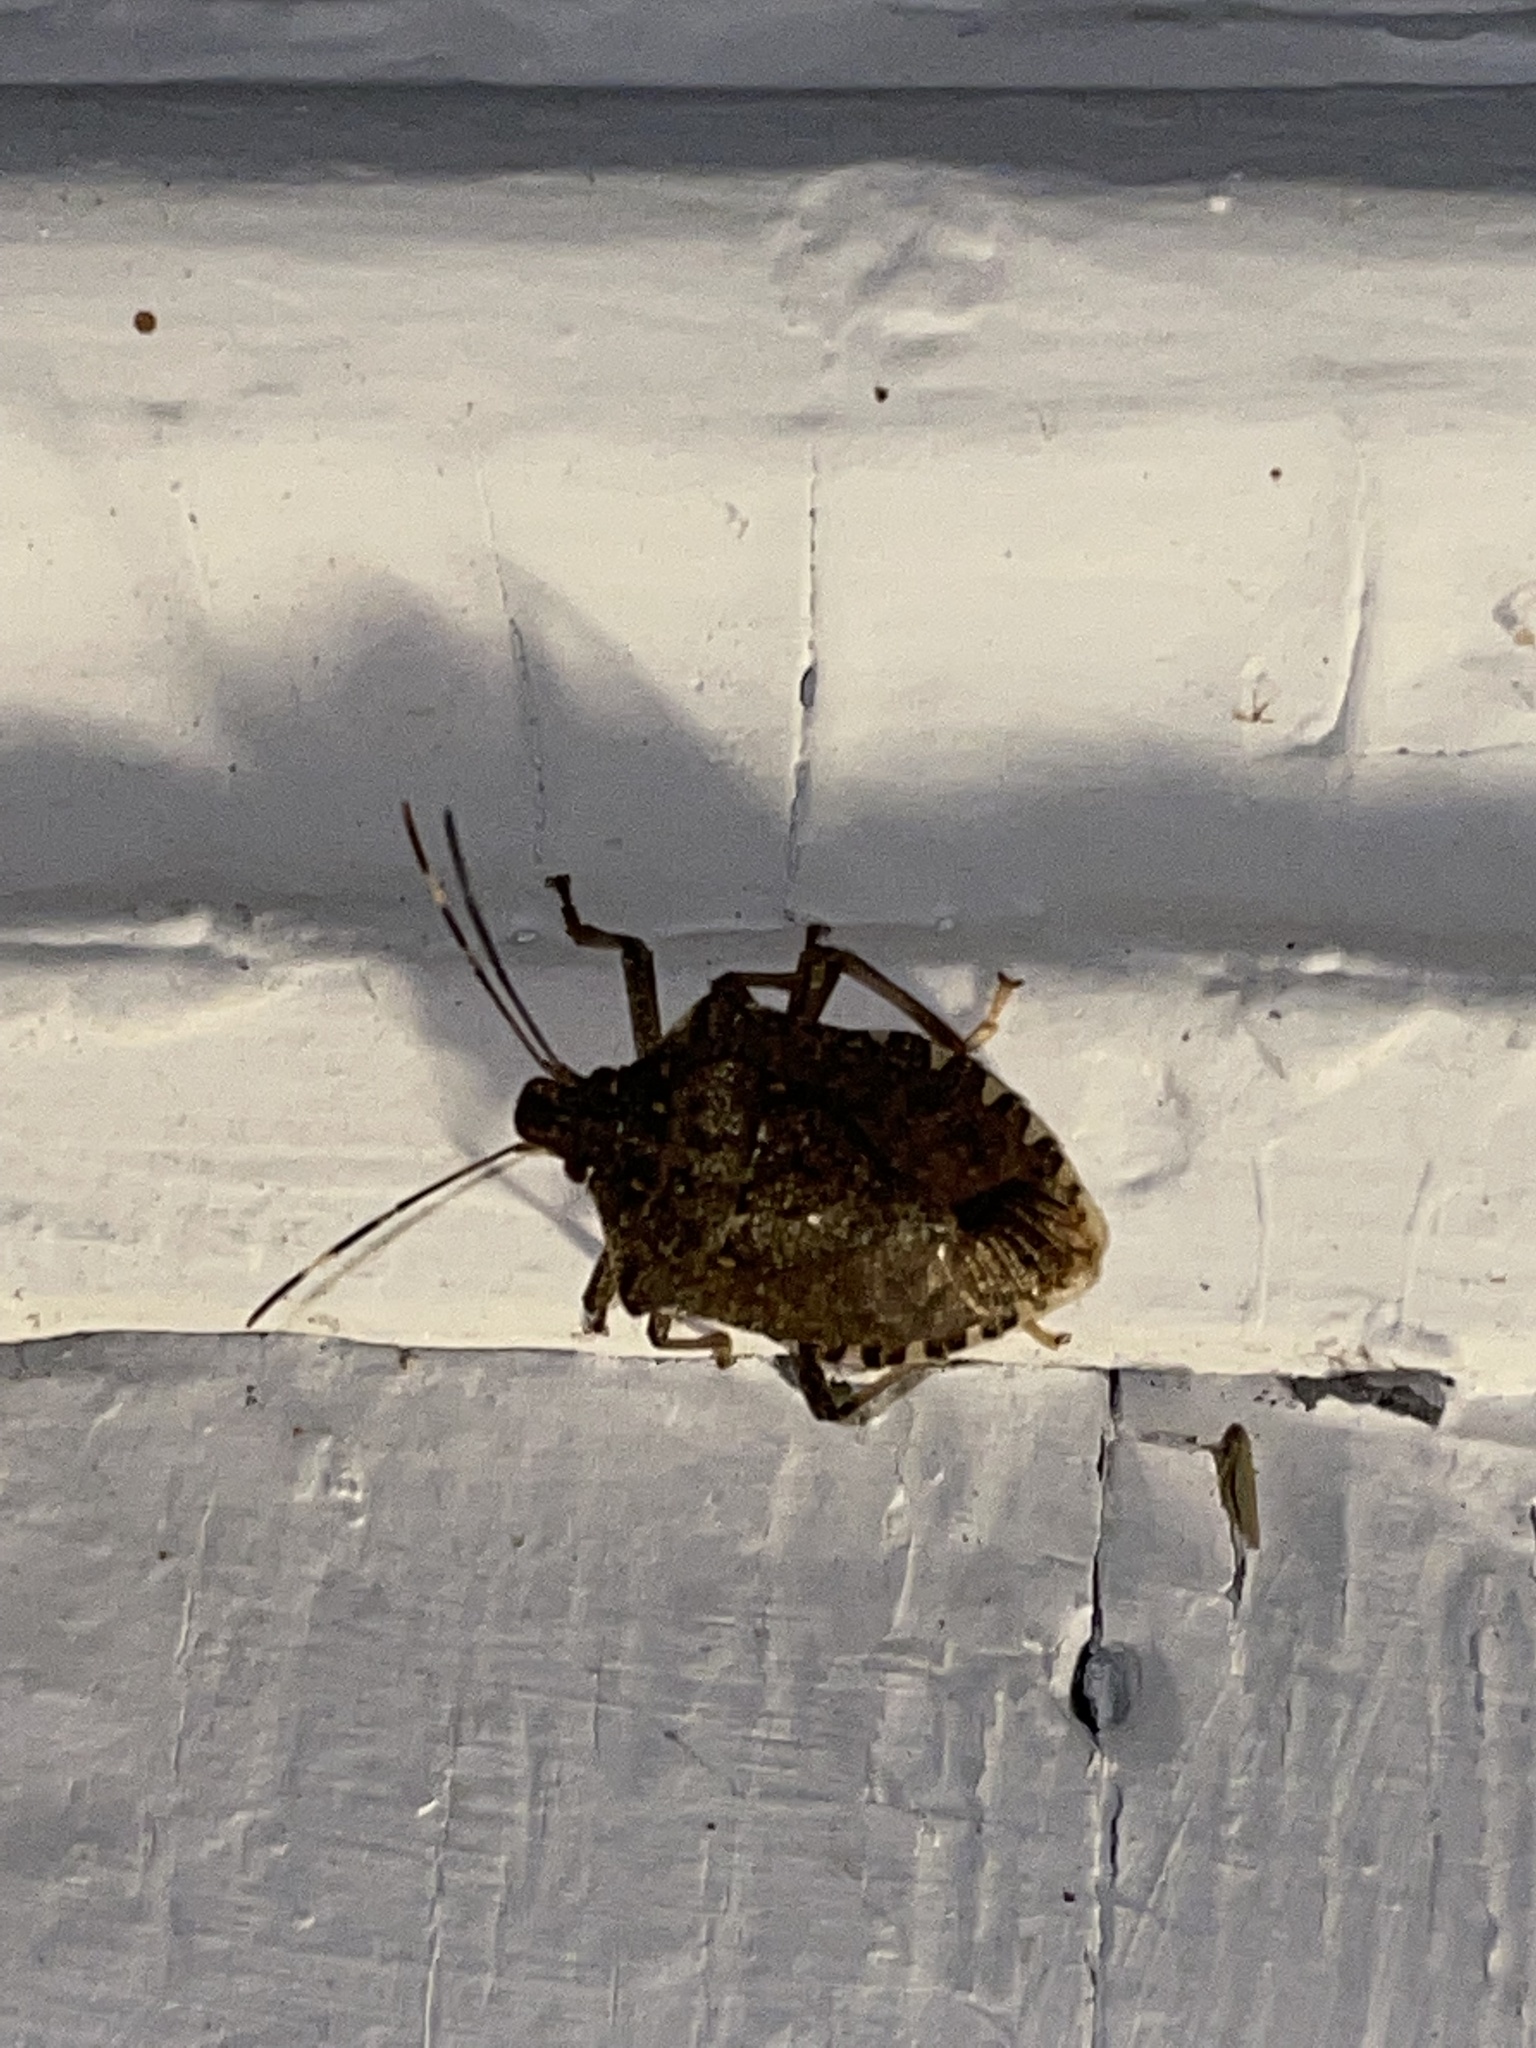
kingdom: Animalia
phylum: Arthropoda
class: Insecta
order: Hemiptera
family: Pentatomidae
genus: Halyomorpha
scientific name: Halyomorpha halys
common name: Brown marmorated stink bug
